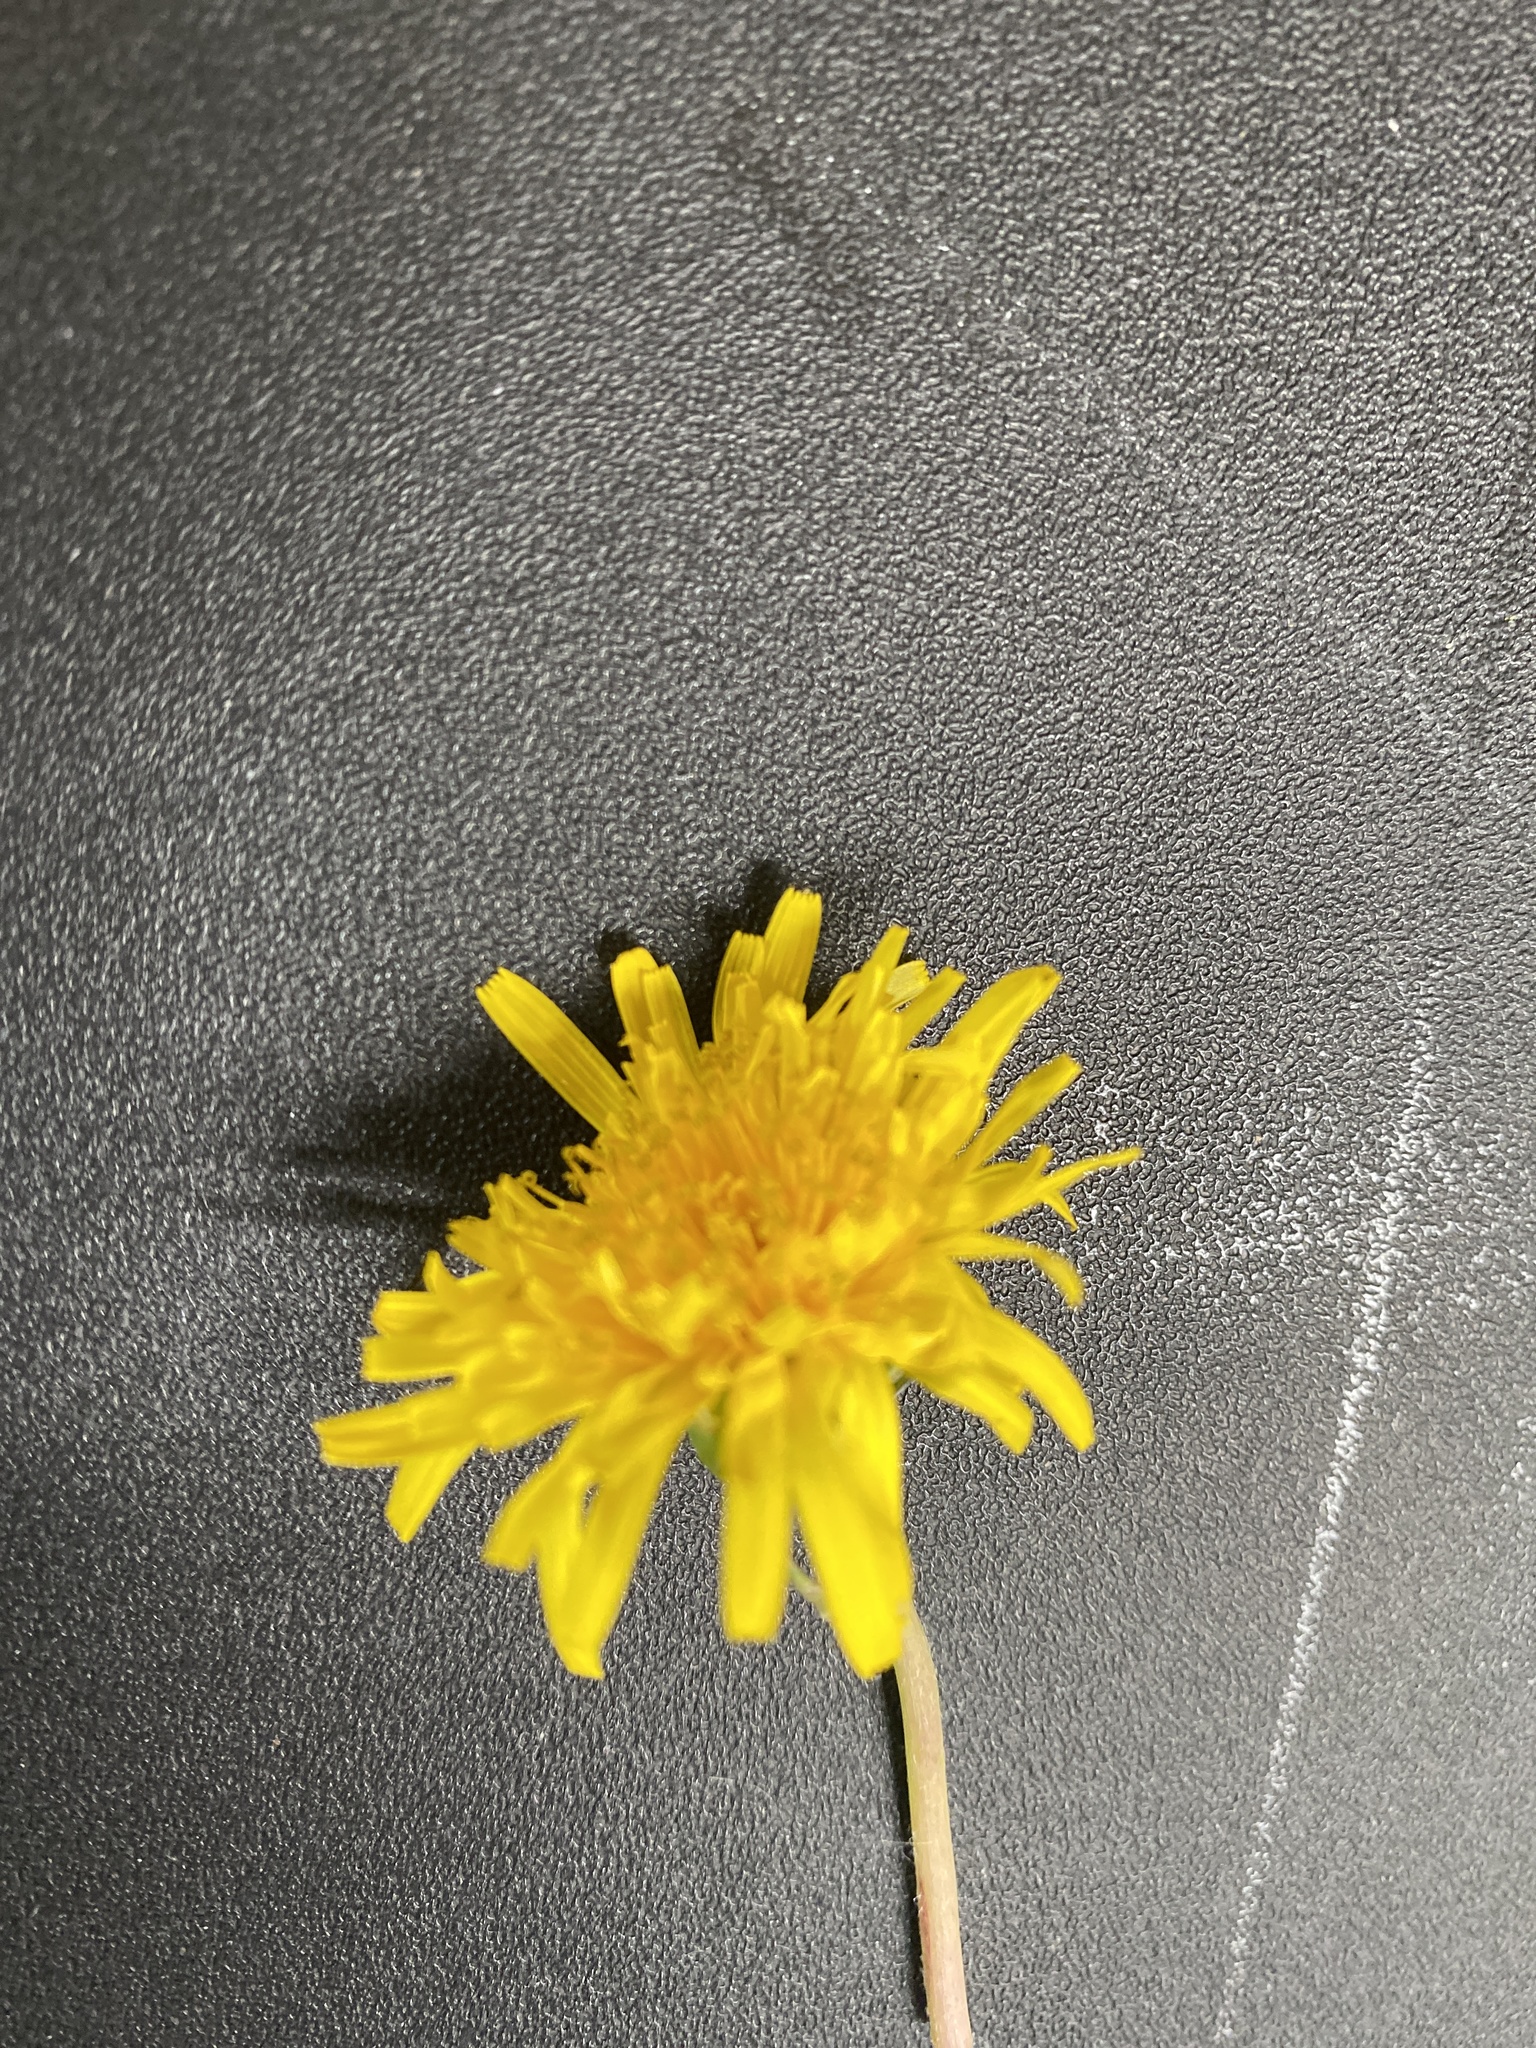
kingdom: Plantae
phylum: Tracheophyta
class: Magnoliopsida
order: Asterales
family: Asteraceae
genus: Taraxacum
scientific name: Taraxacum officinale
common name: Common dandelion
